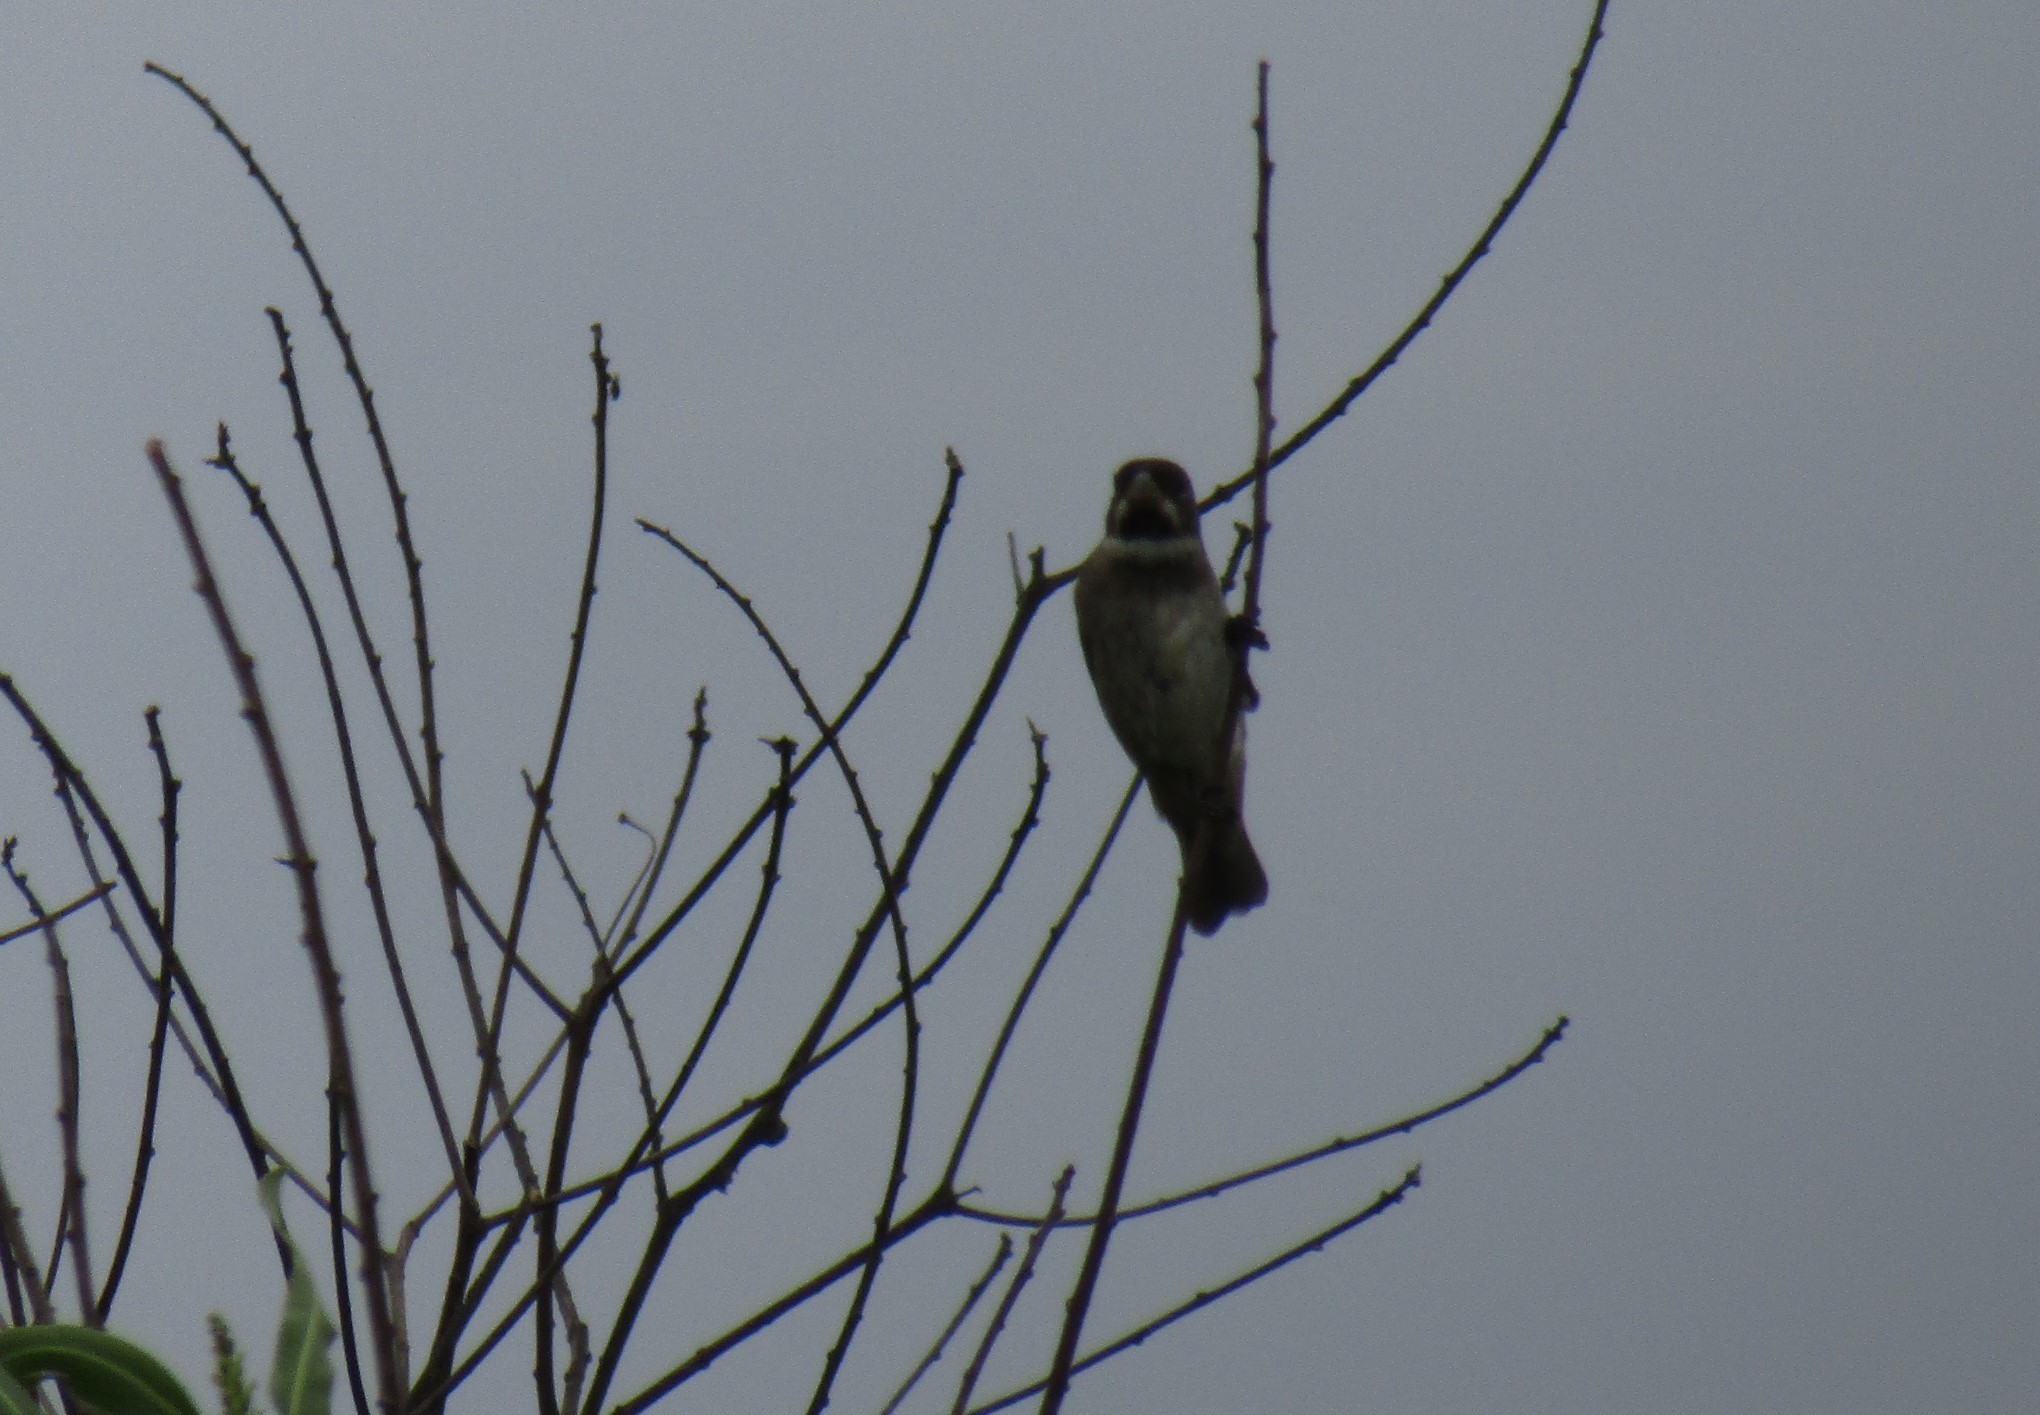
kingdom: Animalia
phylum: Chordata
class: Aves
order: Passeriformes
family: Thraupidae
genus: Sporophila
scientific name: Sporophila caerulescens
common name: Double-collared seedeater
